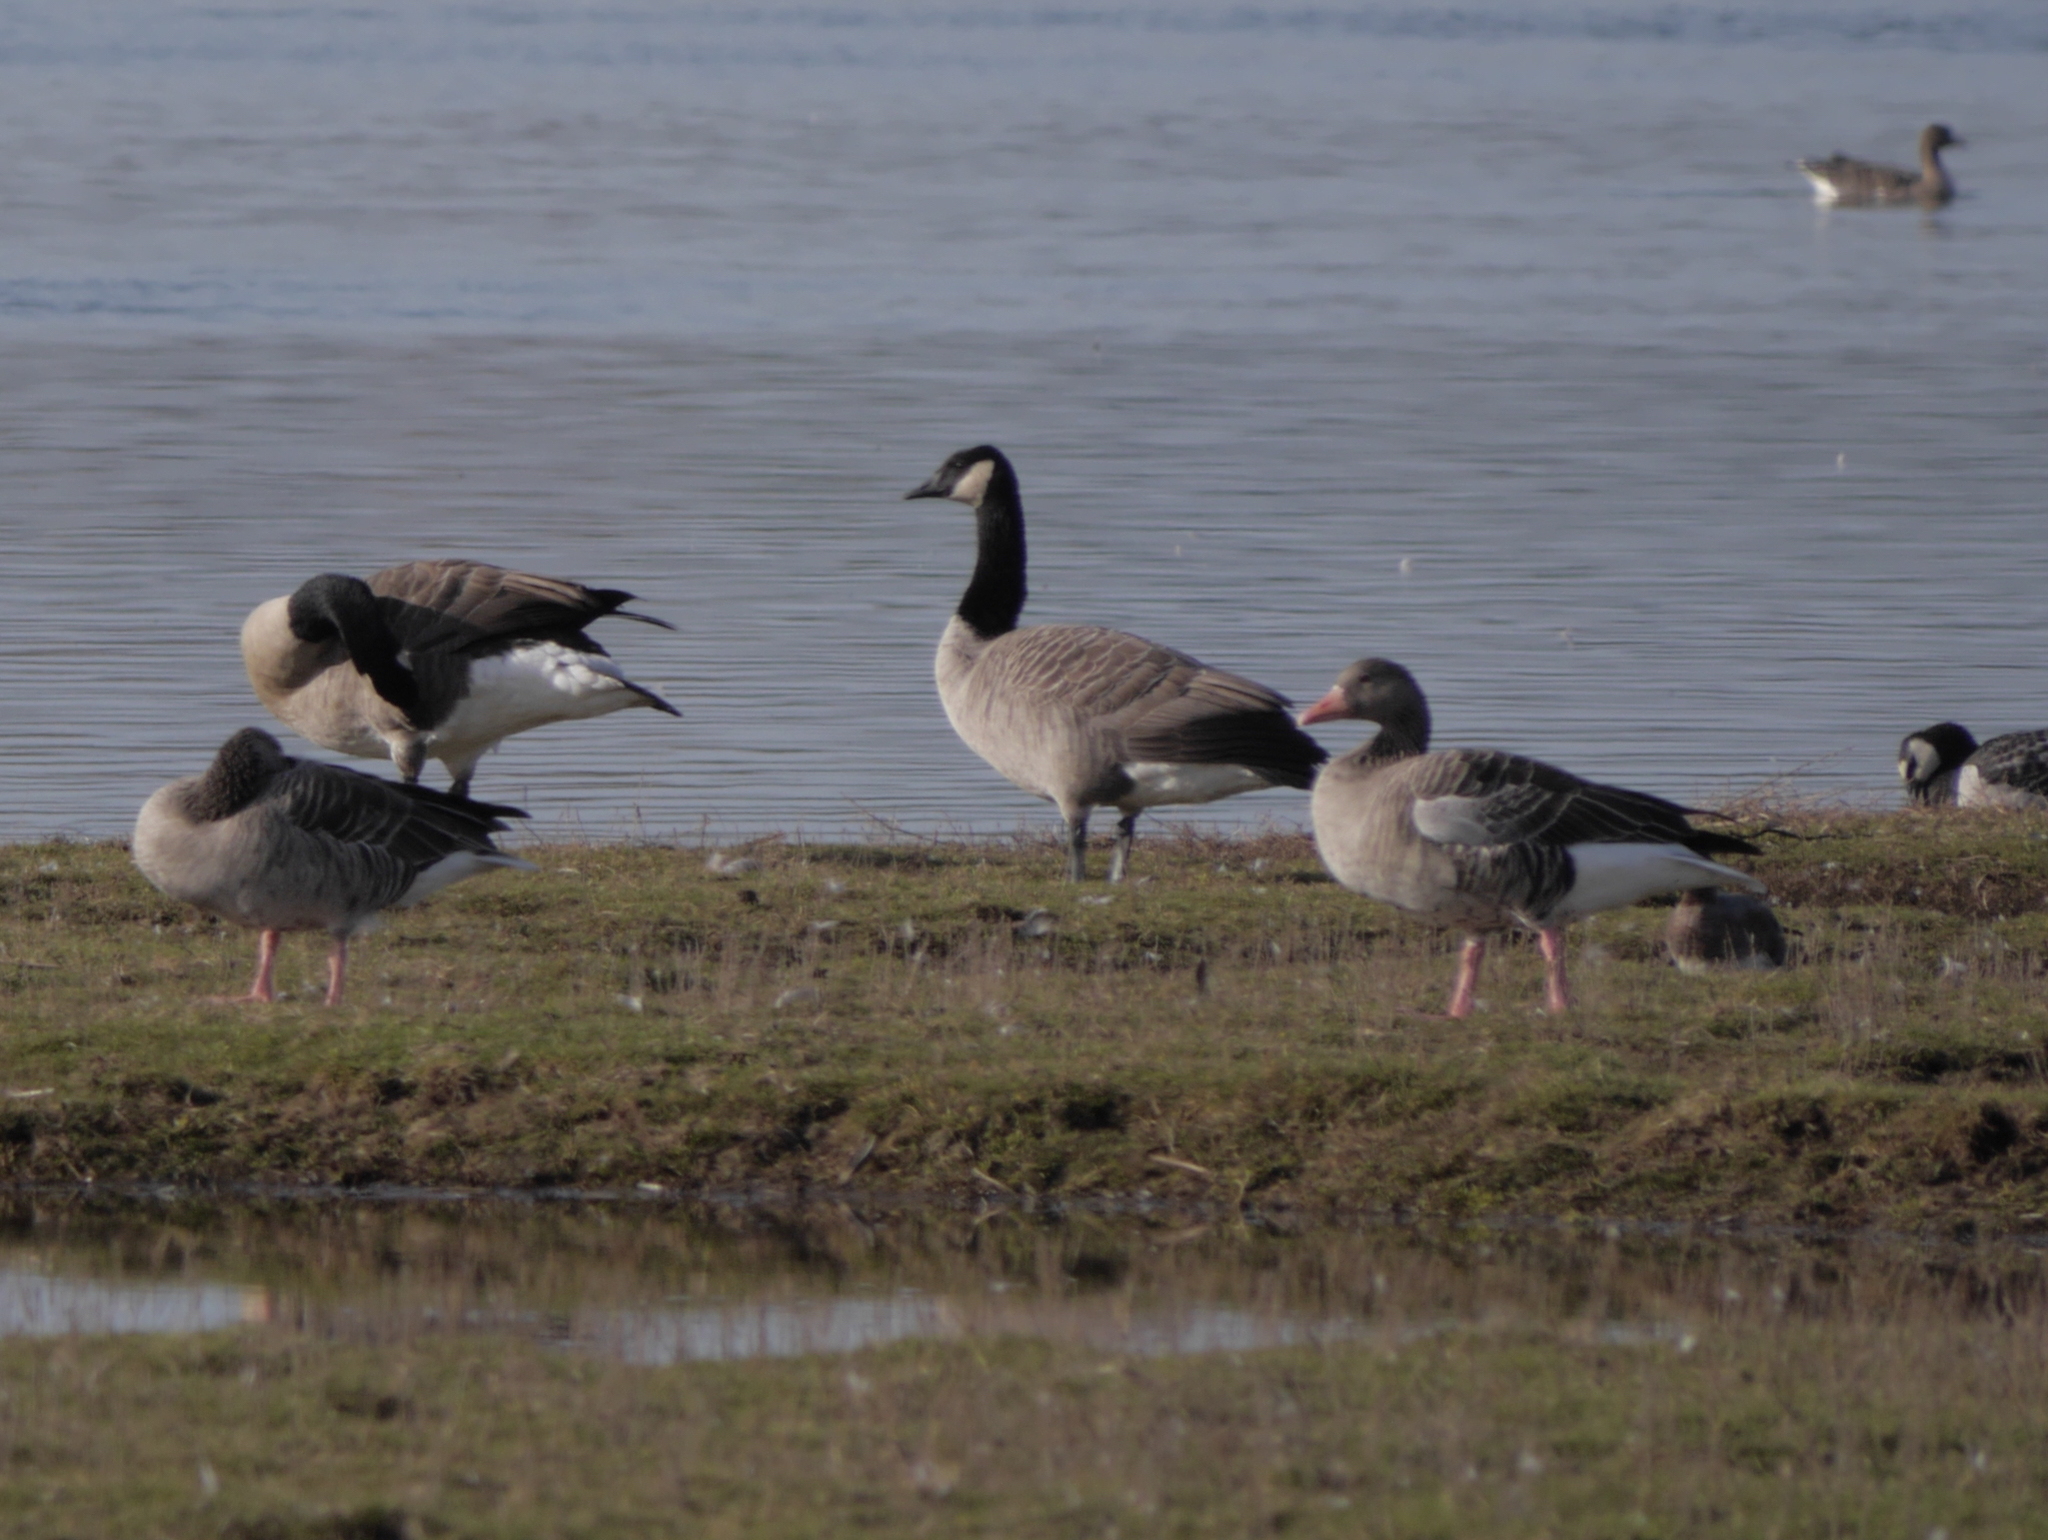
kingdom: Animalia
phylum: Chordata
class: Aves
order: Anseriformes
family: Anatidae
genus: Branta
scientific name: Branta canadensis
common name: Canada goose
